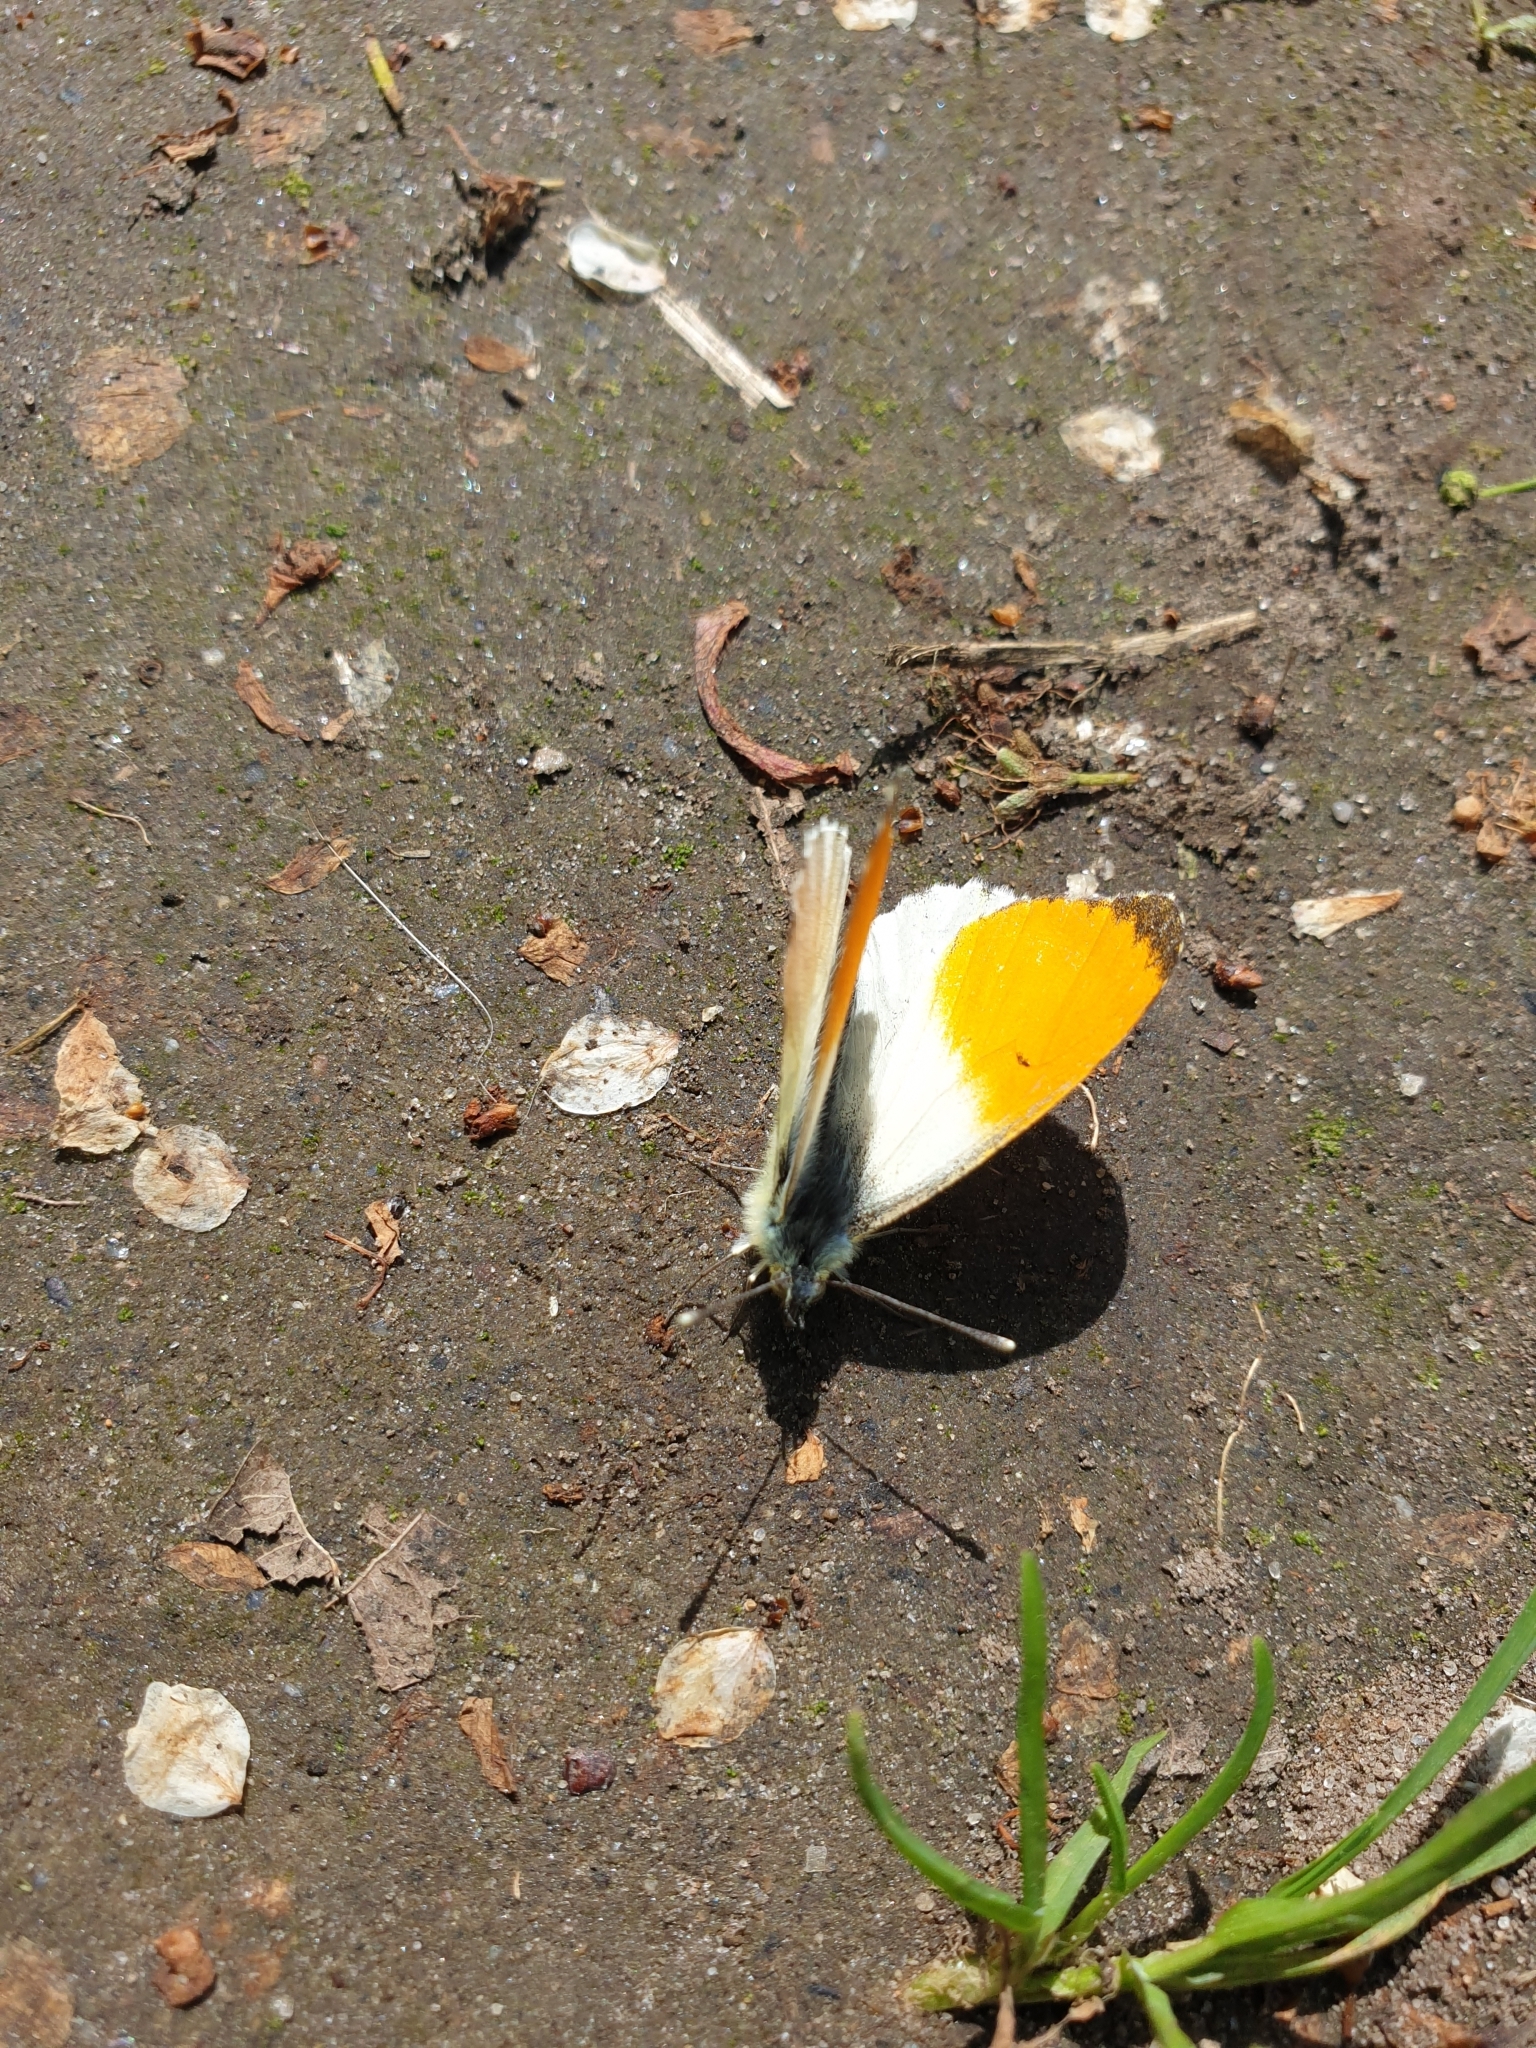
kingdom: Animalia
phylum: Arthropoda
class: Insecta
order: Lepidoptera
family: Pieridae
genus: Anthocharis
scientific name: Anthocharis cardamines
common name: Orange-tip
